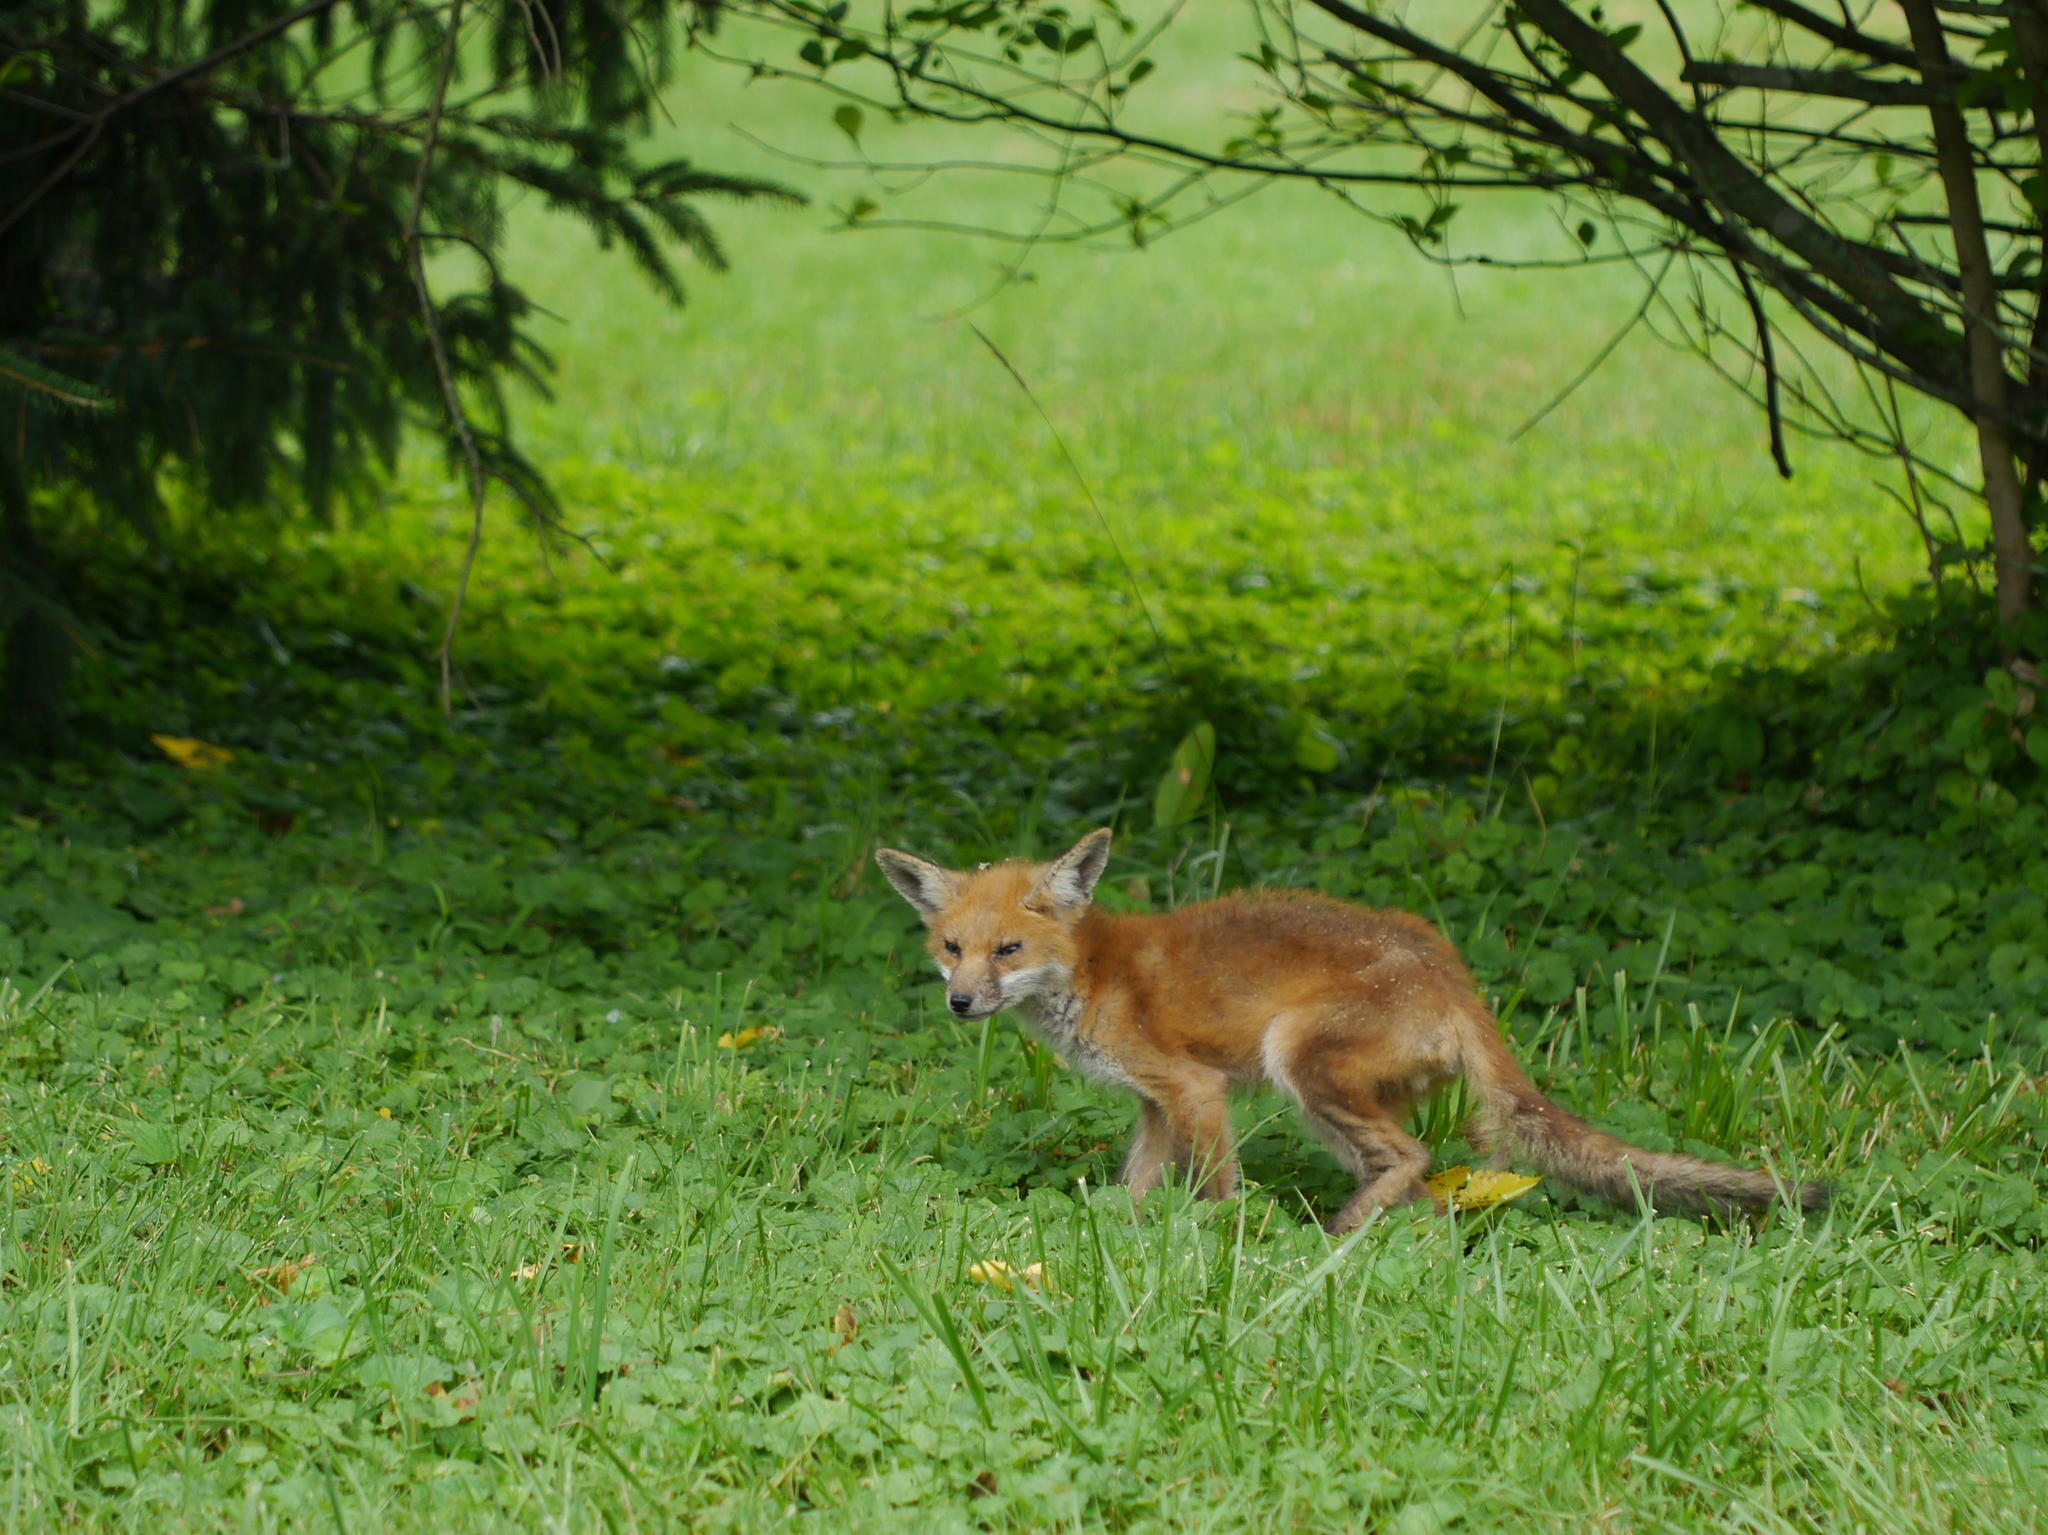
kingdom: Animalia
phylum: Chordata
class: Mammalia
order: Carnivora
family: Canidae
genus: Vulpes
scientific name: Vulpes vulpes
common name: Red fox
